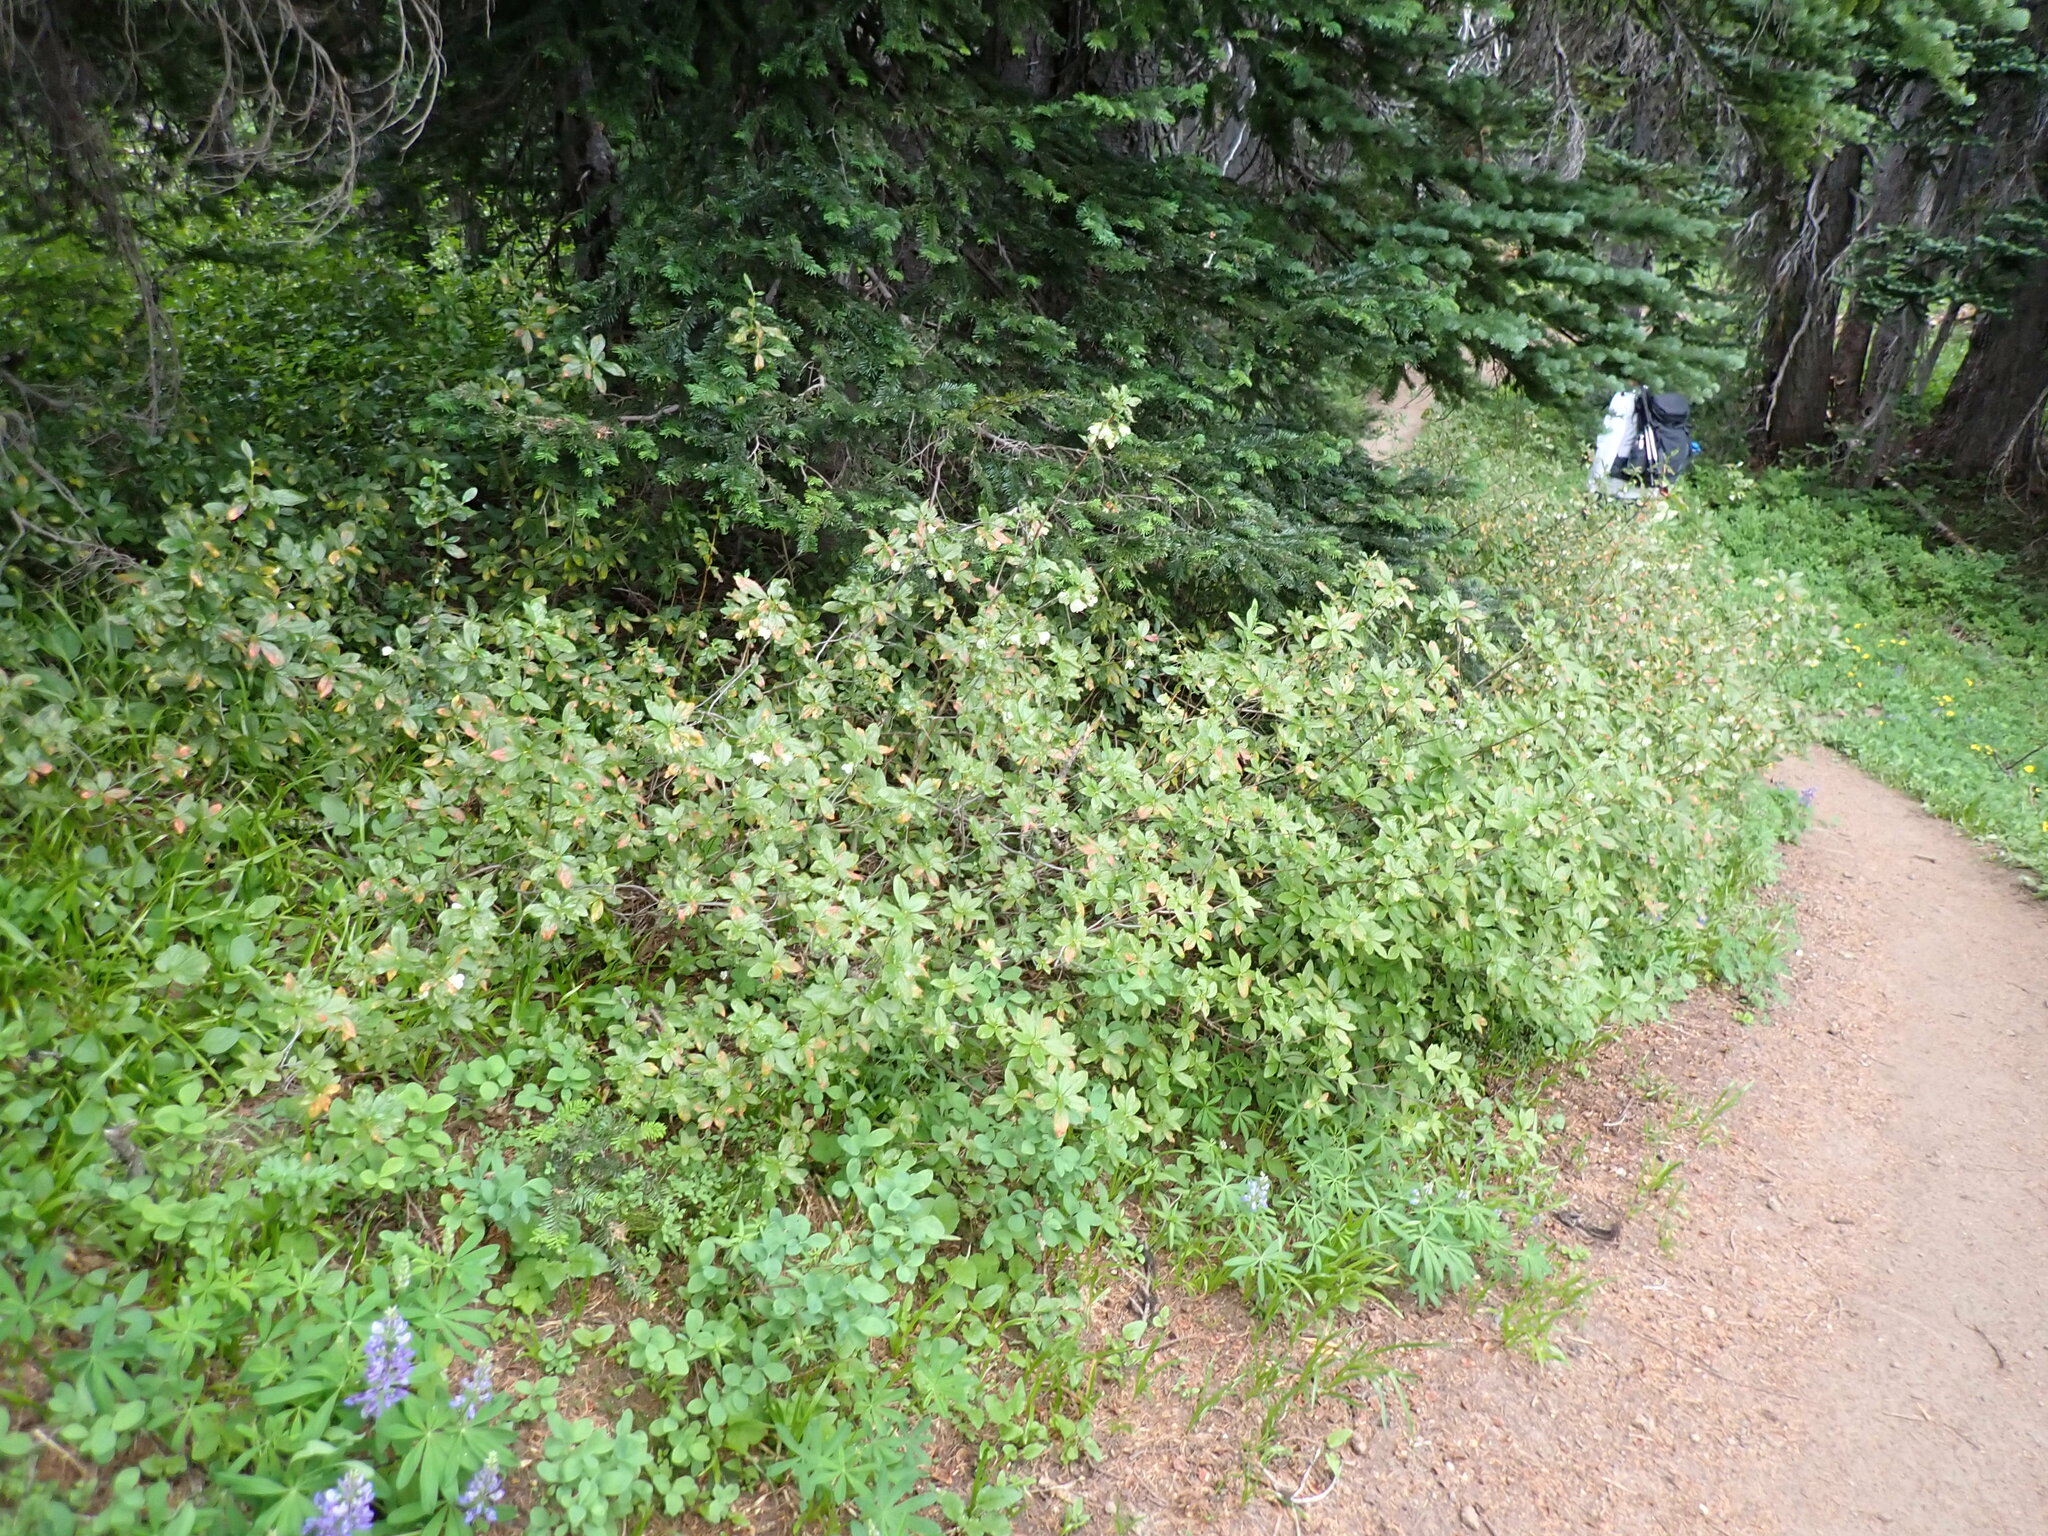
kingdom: Plantae
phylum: Tracheophyta
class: Magnoliopsida
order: Ericales
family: Ericaceae
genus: Rhododendron
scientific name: Rhododendron albiflorum
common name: White rhododendron
